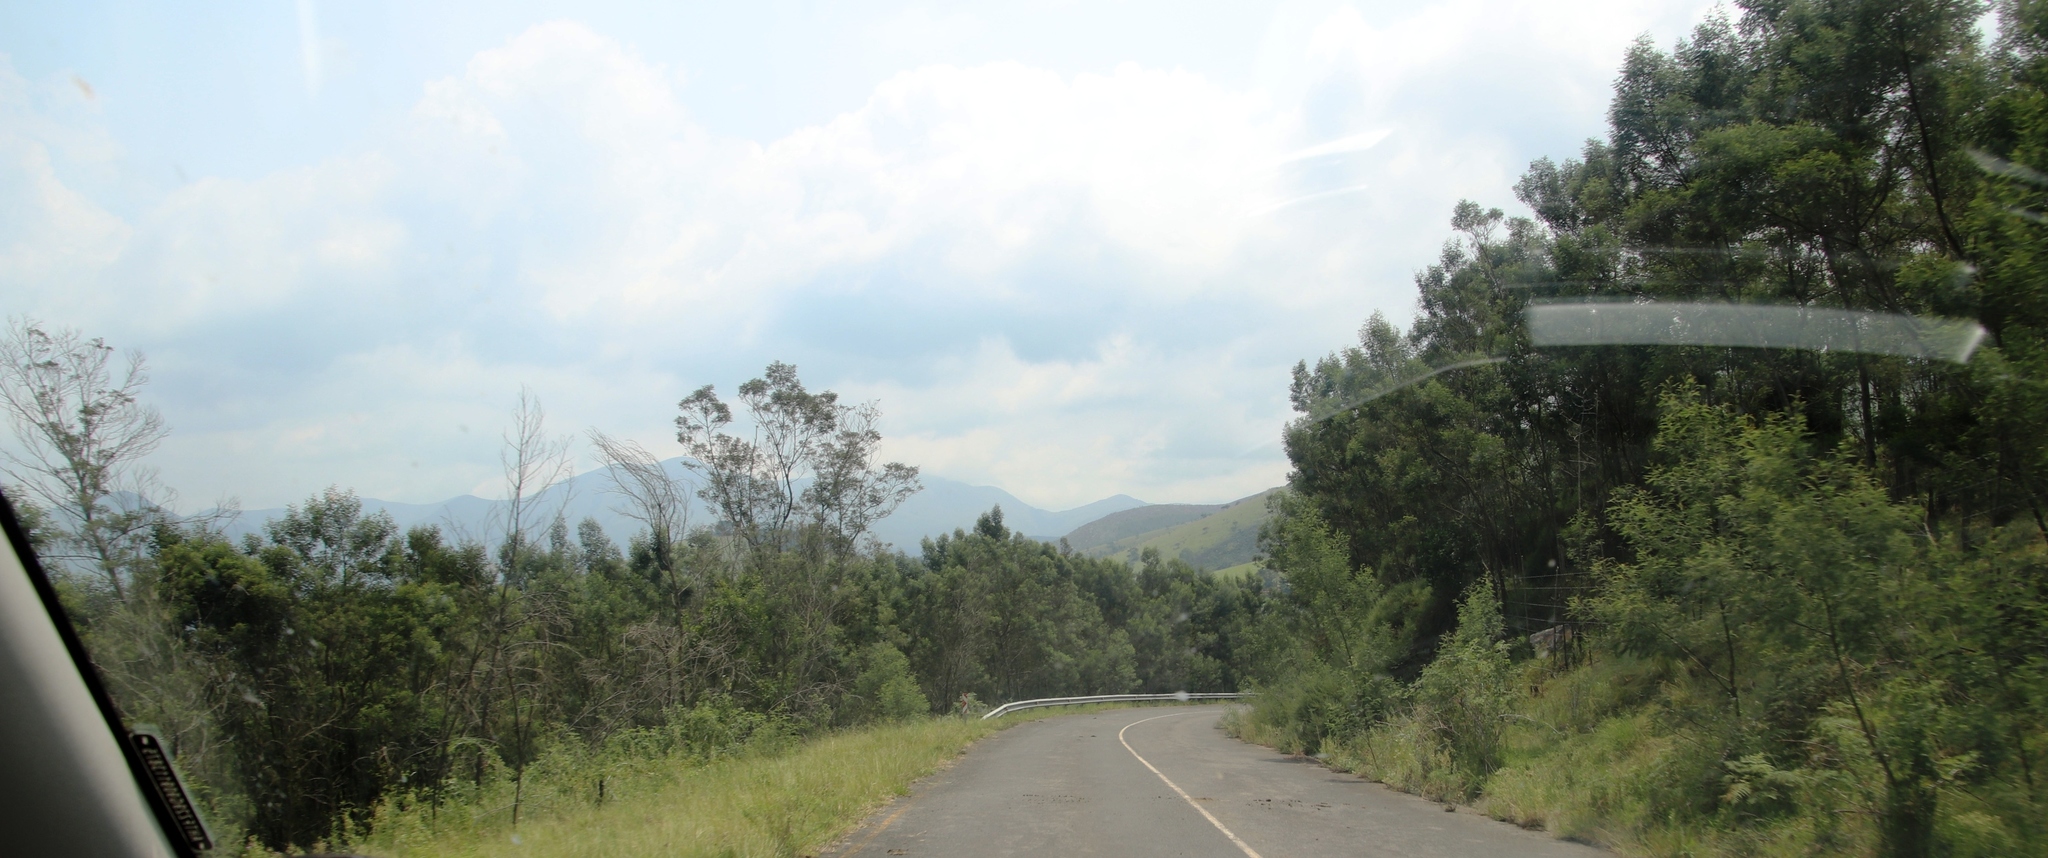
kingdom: Plantae
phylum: Tracheophyta
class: Magnoliopsida
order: Fabales
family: Fabaceae
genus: Acacia
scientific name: Acacia mearnsii
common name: Black wattle
